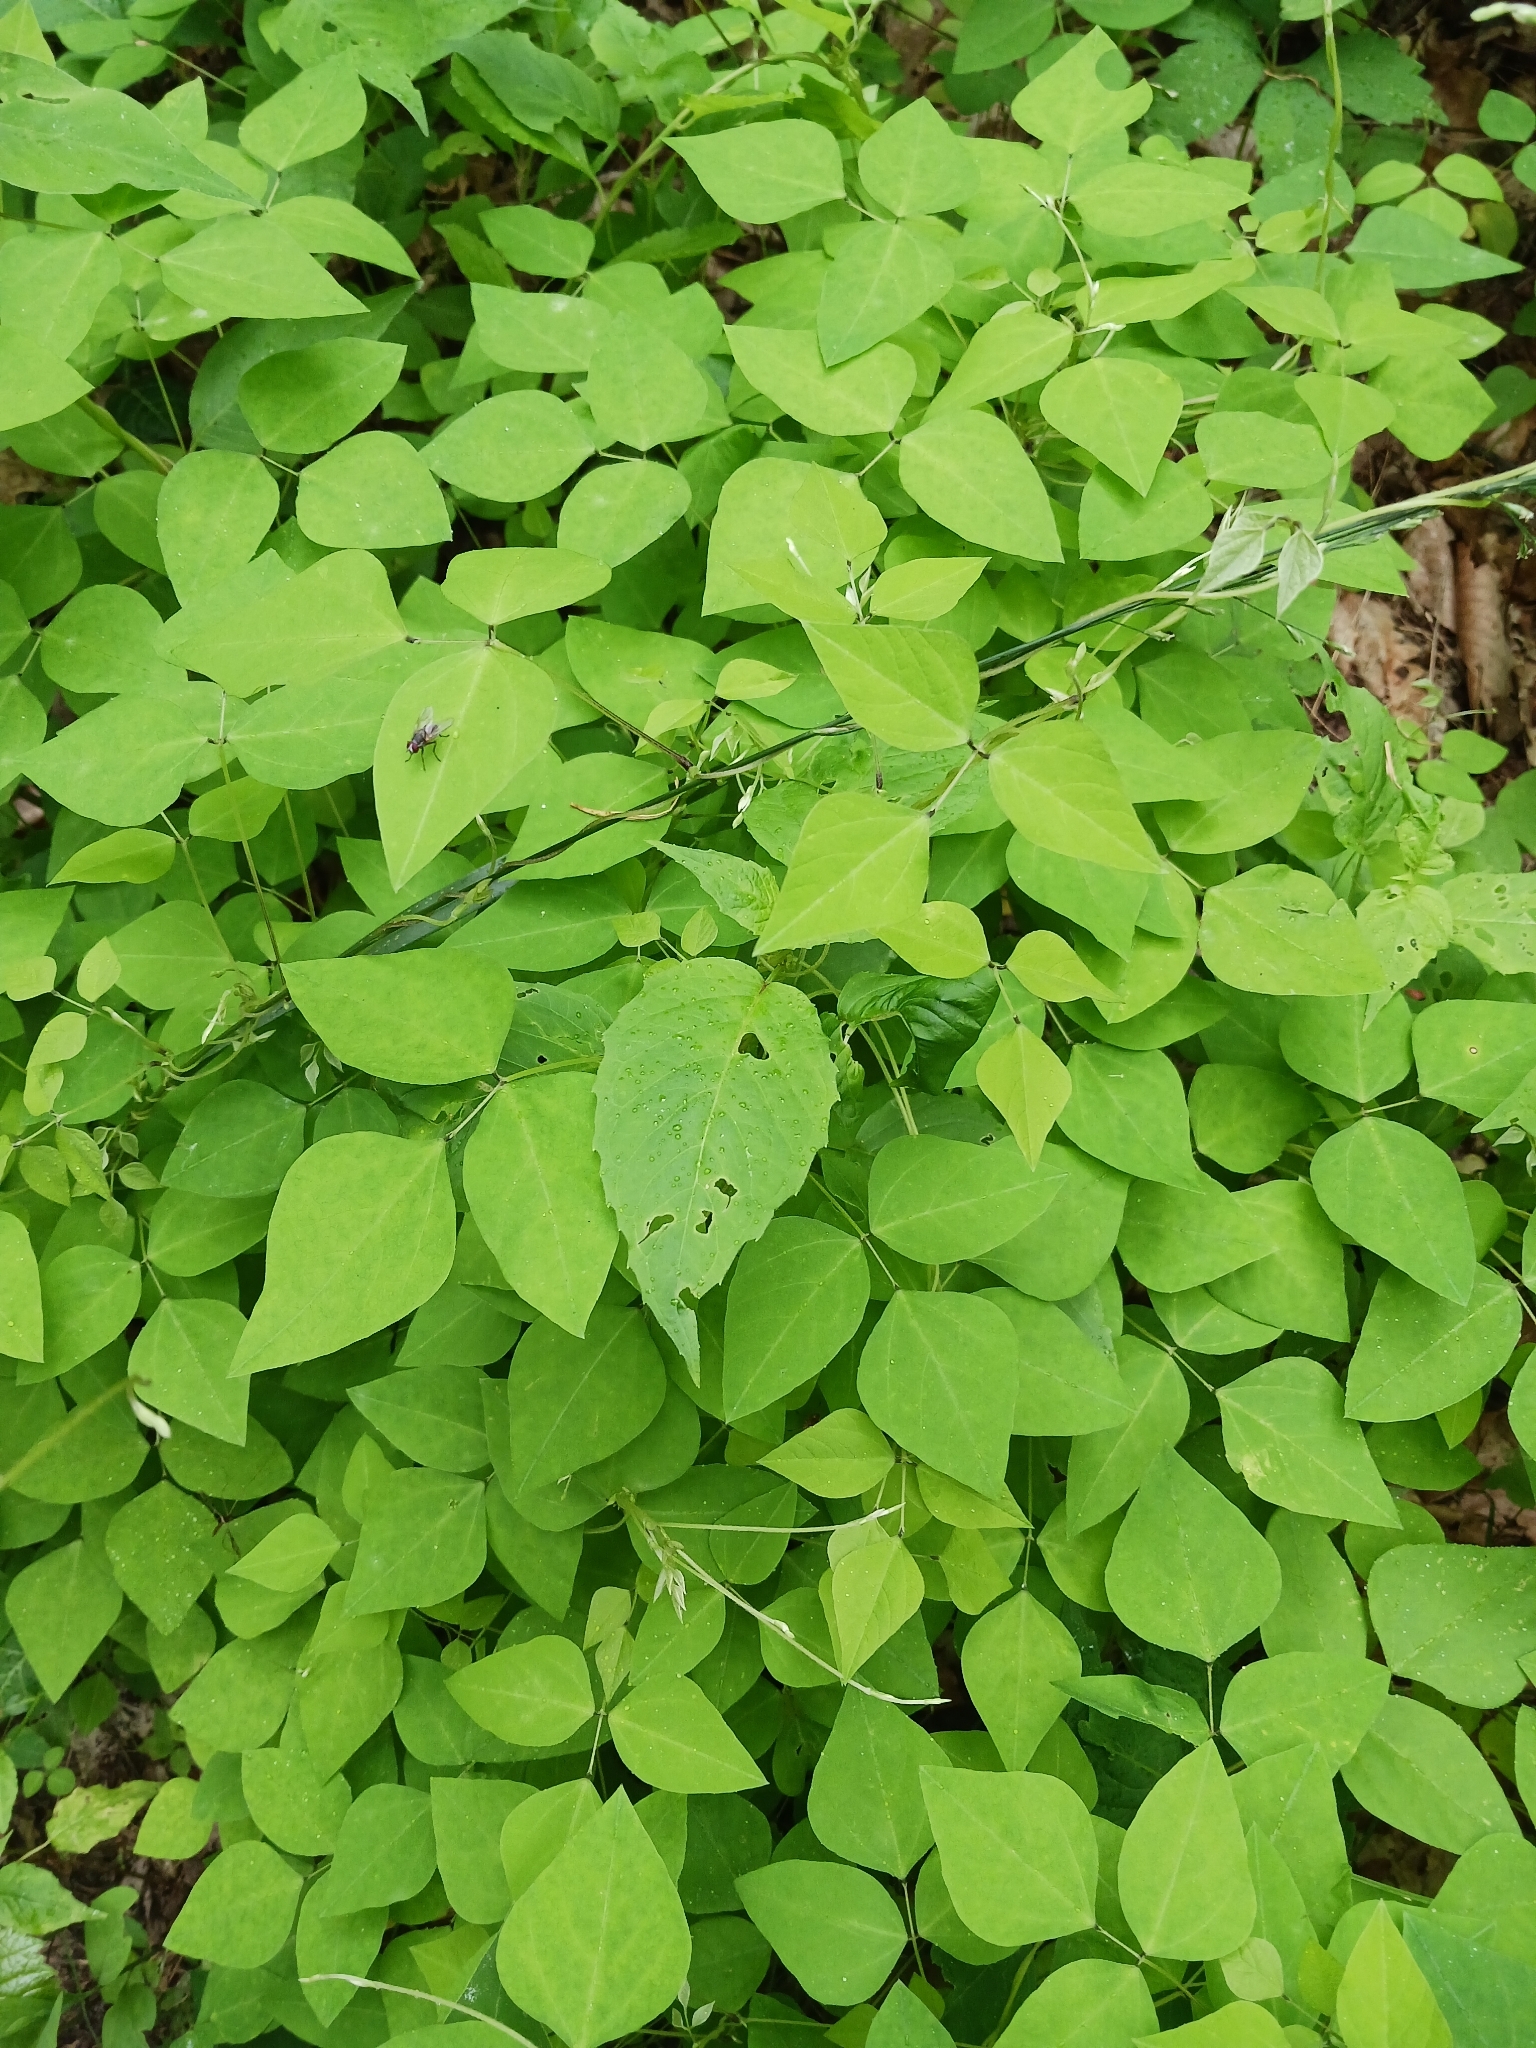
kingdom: Plantae
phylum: Tracheophyta
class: Magnoliopsida
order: Fabales
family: Fabaceae
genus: Amphicarpaea
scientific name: Amphicarpaea bracteata
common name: American hog peanut
